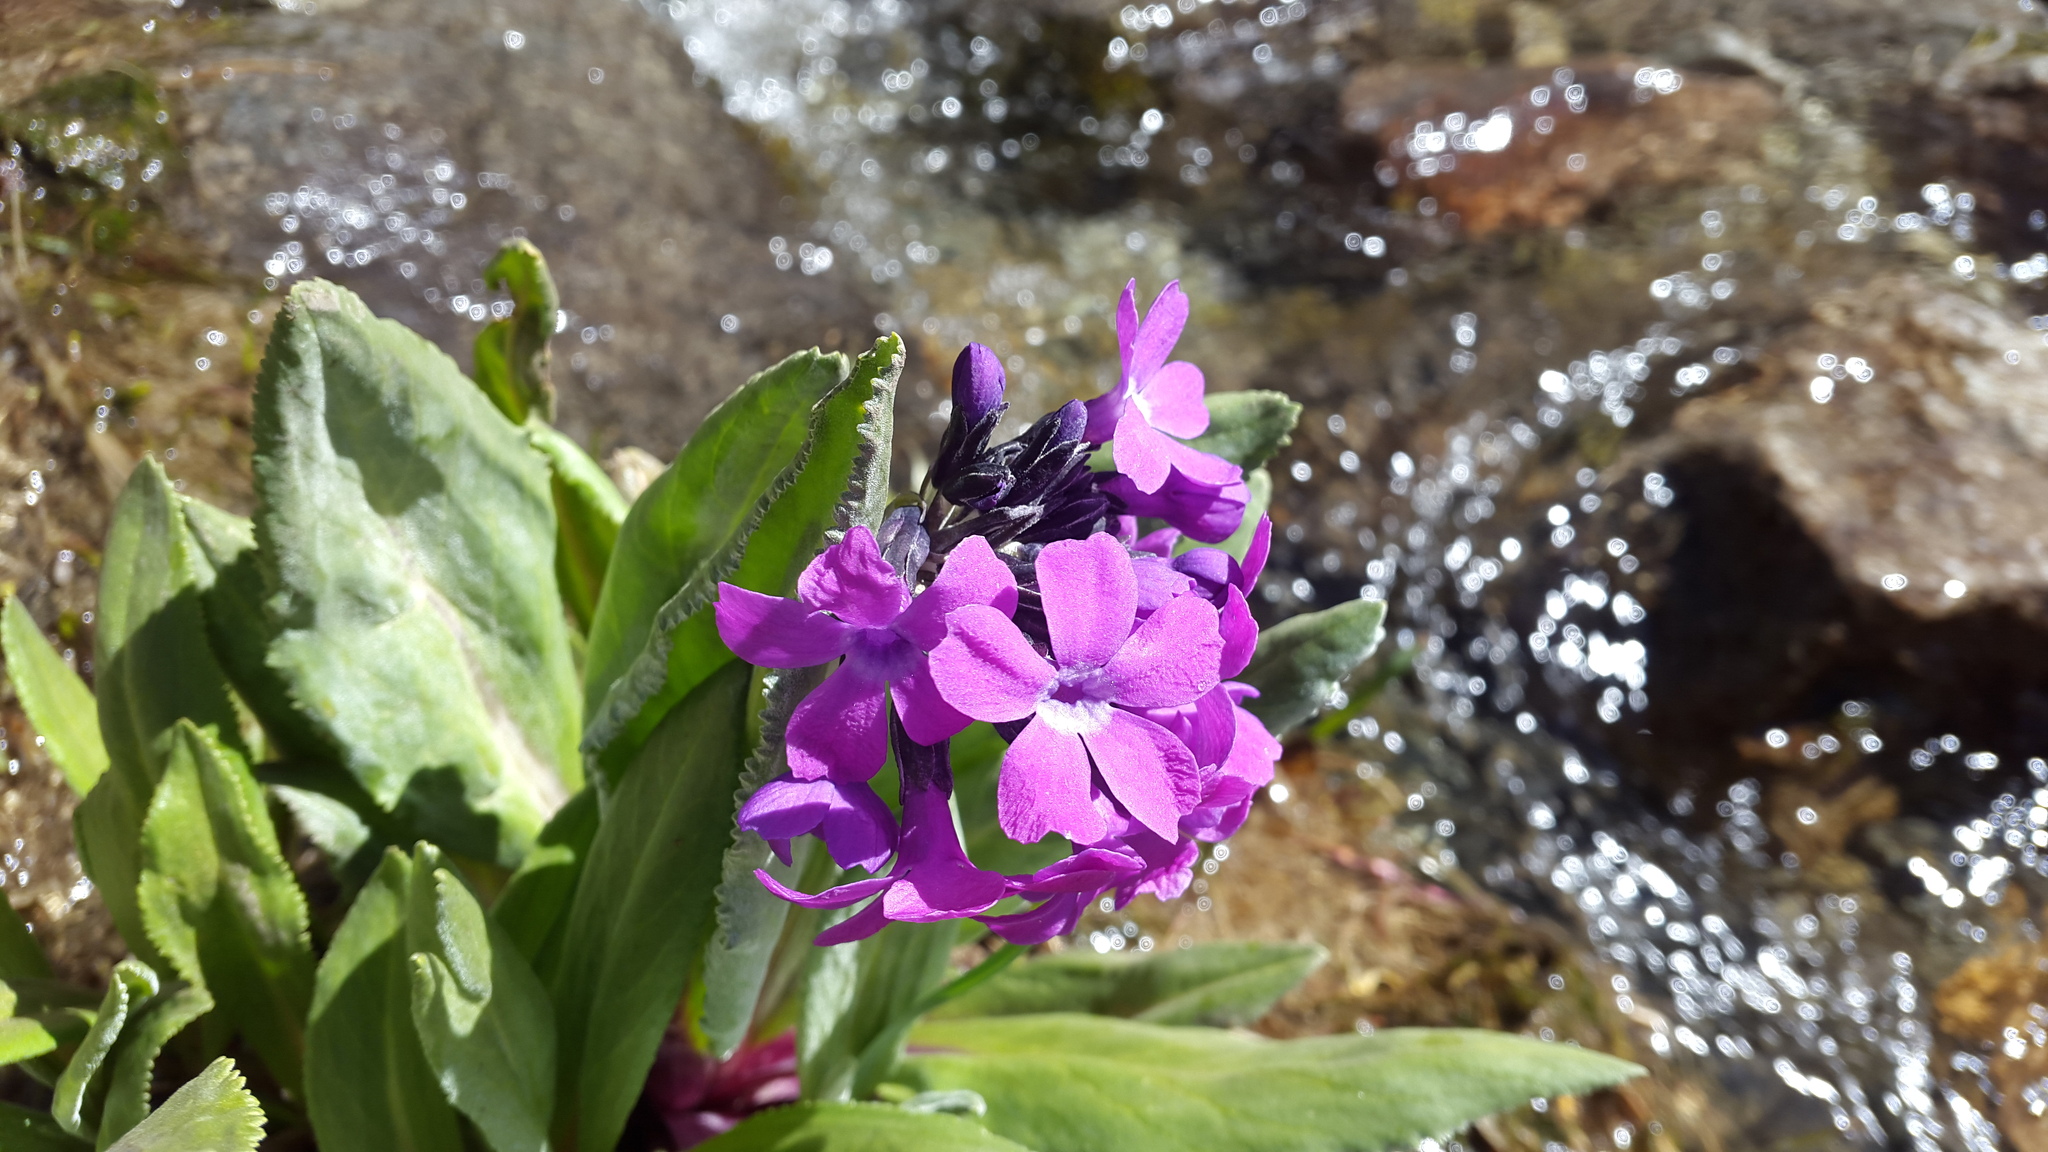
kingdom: Plantae
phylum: Tracheophyta
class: Magnoliopsida
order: Ericales
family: Primulaceae
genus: Primula
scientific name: Primula nivalis
